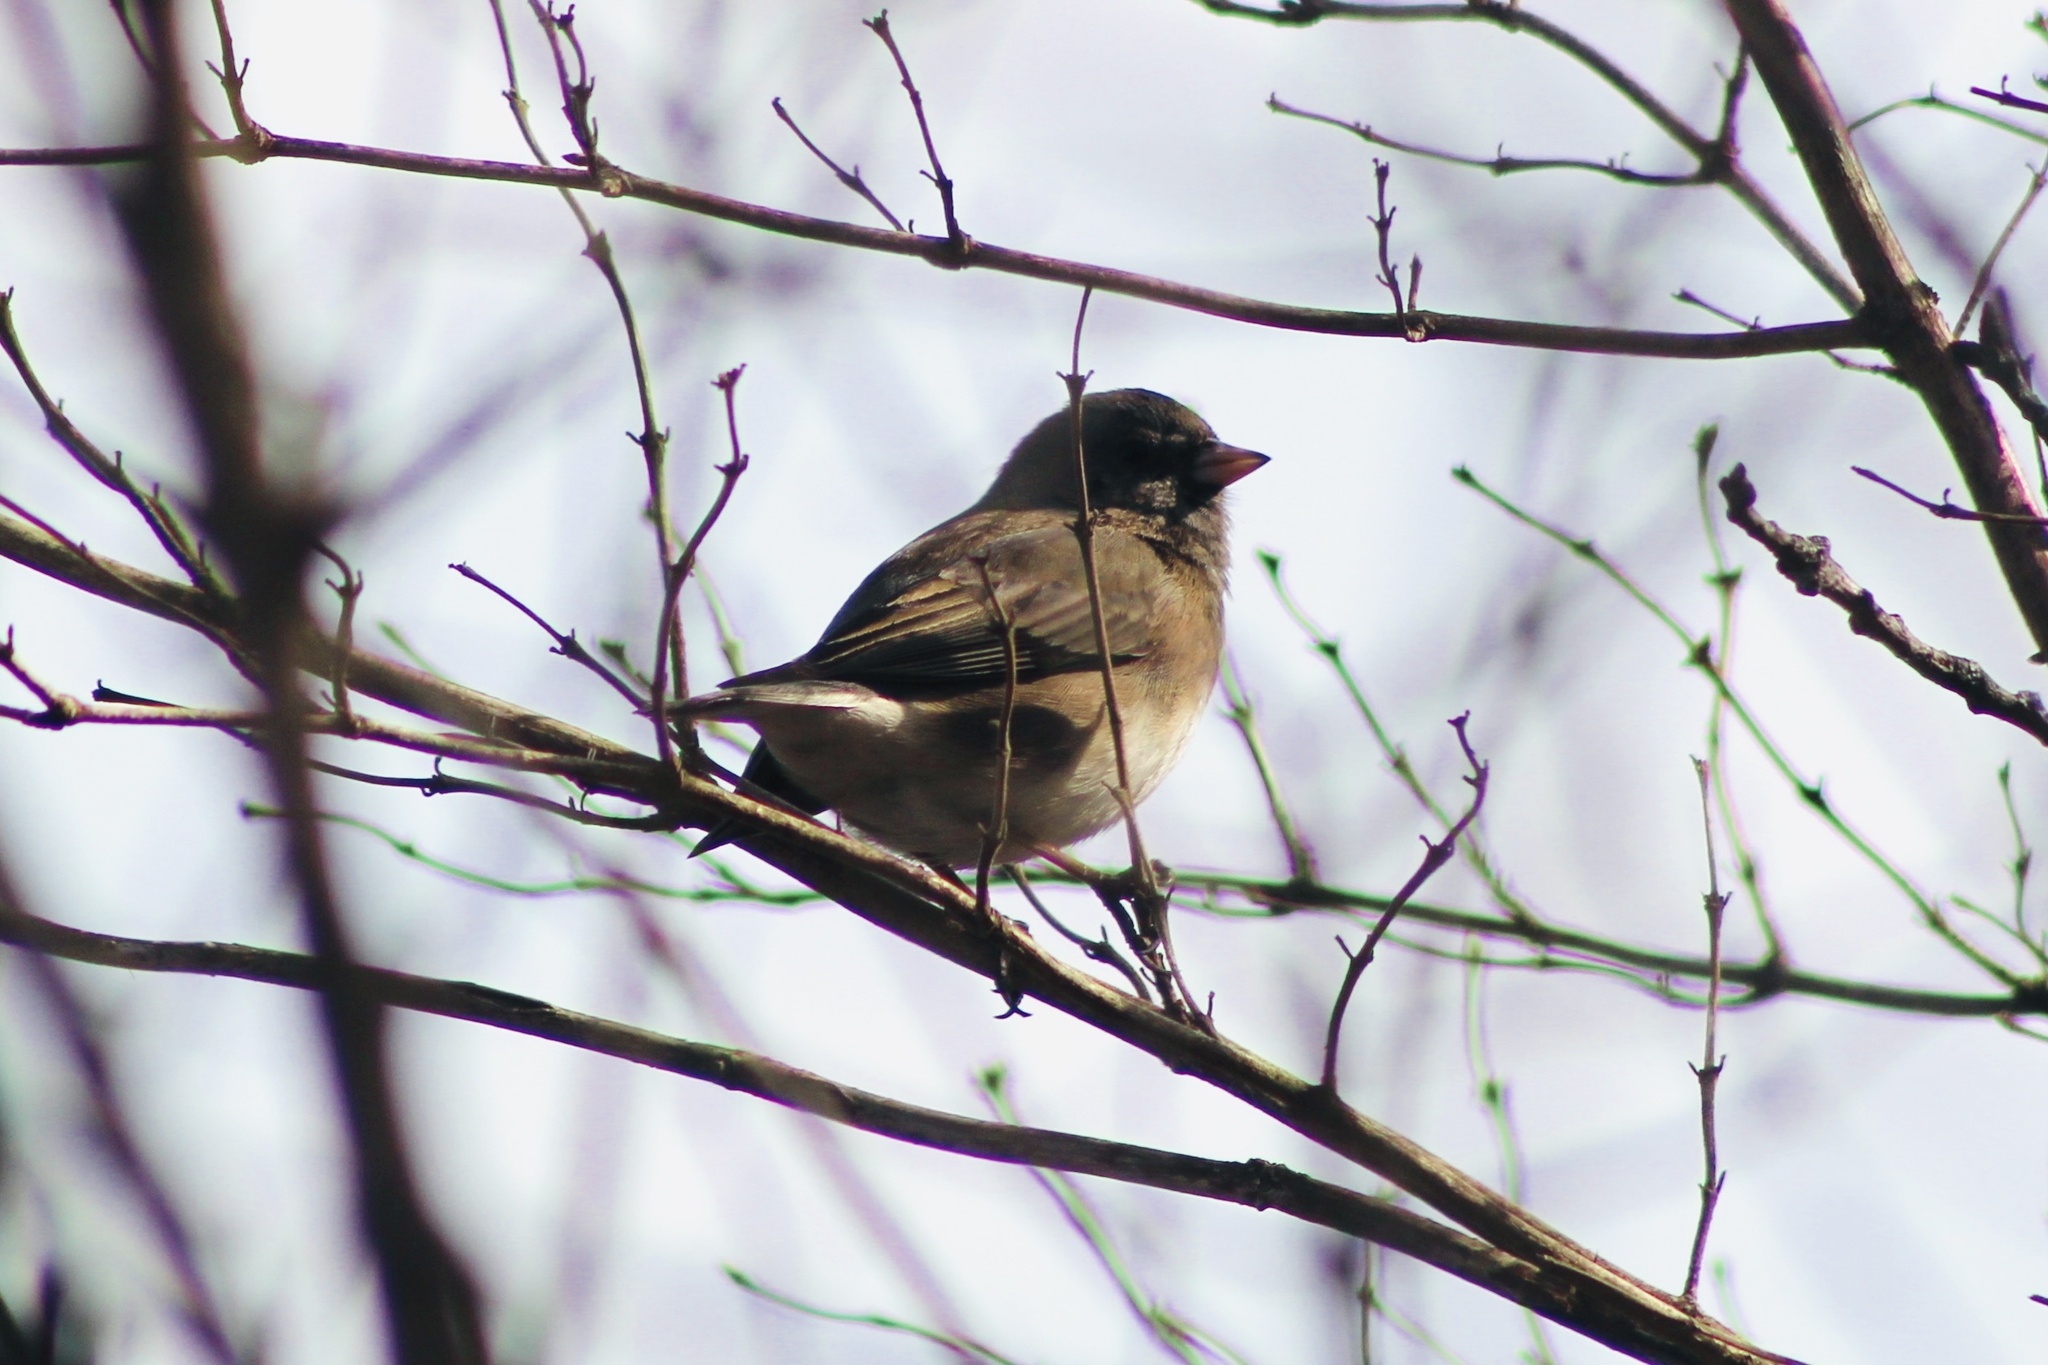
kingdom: Animalia
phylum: Chordata
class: Aves
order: Passeriformes
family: Passerellidae
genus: Junco
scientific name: Junco hyemalis
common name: Dark-eyed junco
